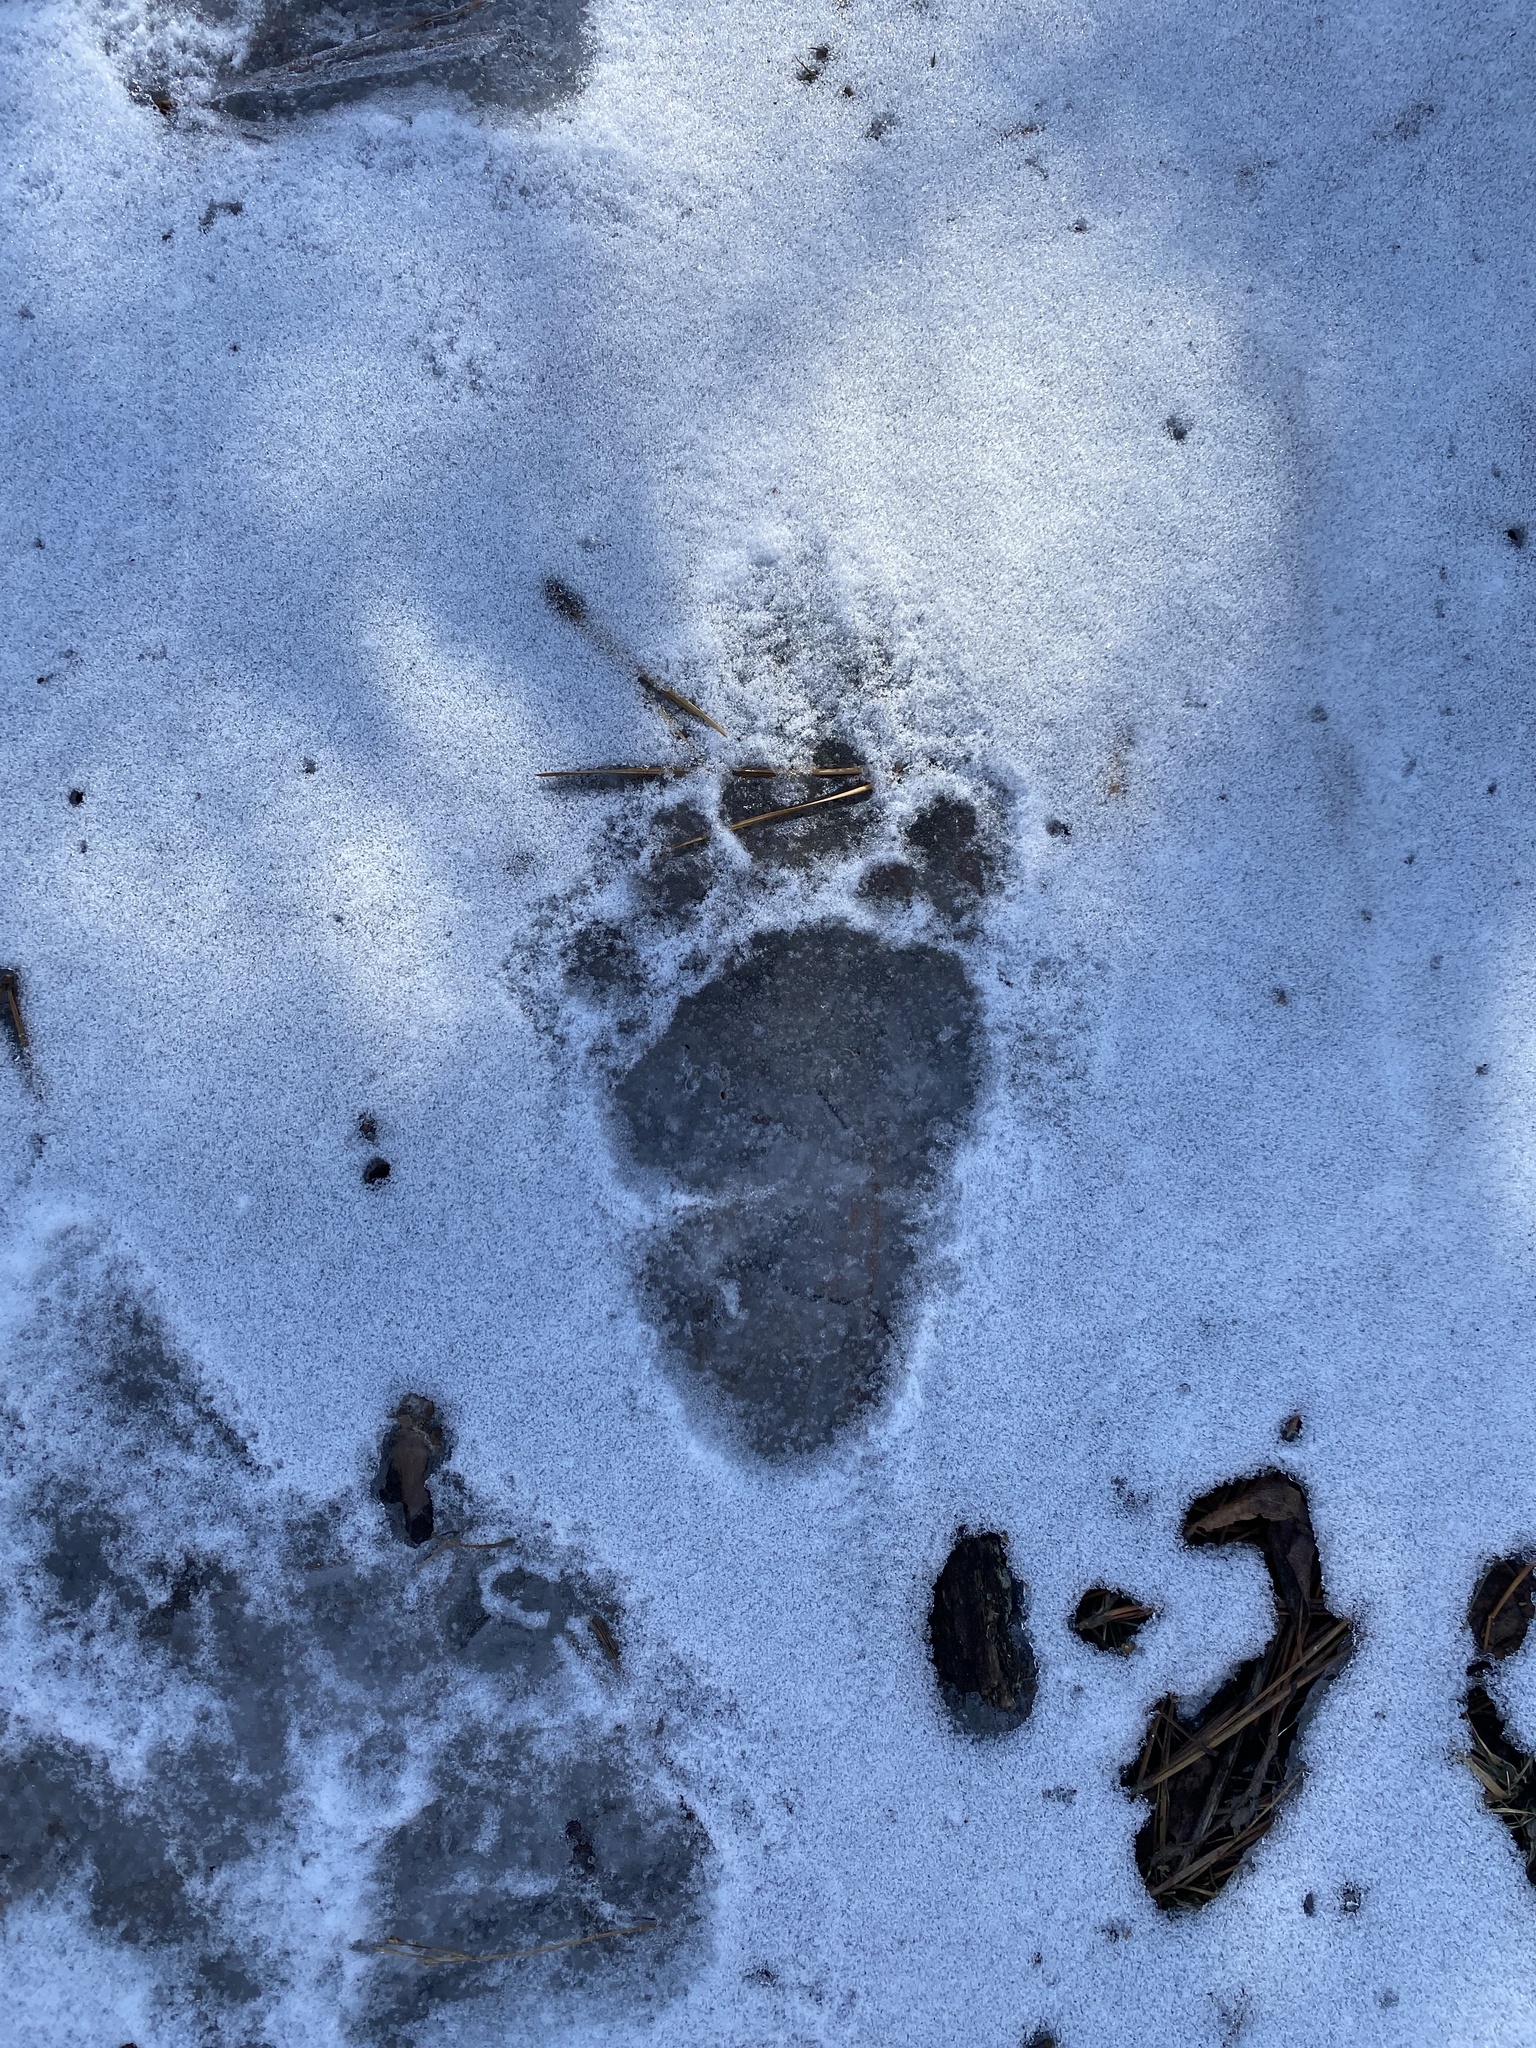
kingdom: Animalia
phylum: Chordata
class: Mammalia
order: Carnivora
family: Ursidae
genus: Ursus
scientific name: Ursus americanus
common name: American black bear
